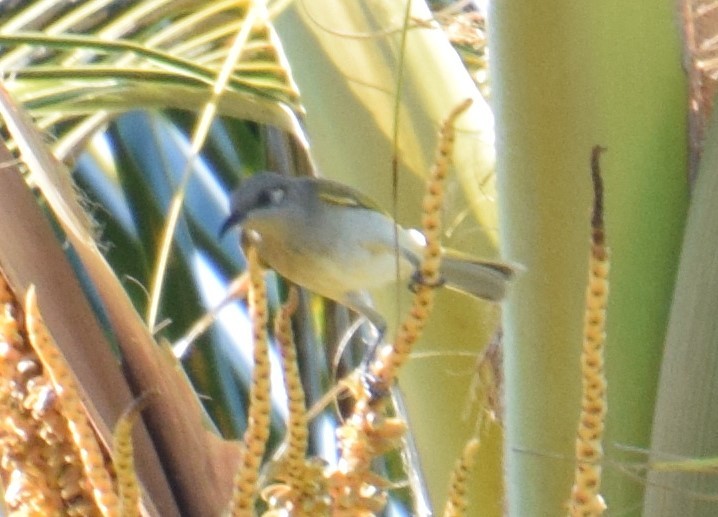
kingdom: Animalia
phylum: Chordata
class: Aves
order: Passeriformes
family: Meliphagidae
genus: Lichmera
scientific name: Lichmera indistincta
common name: Brown honeyeater
